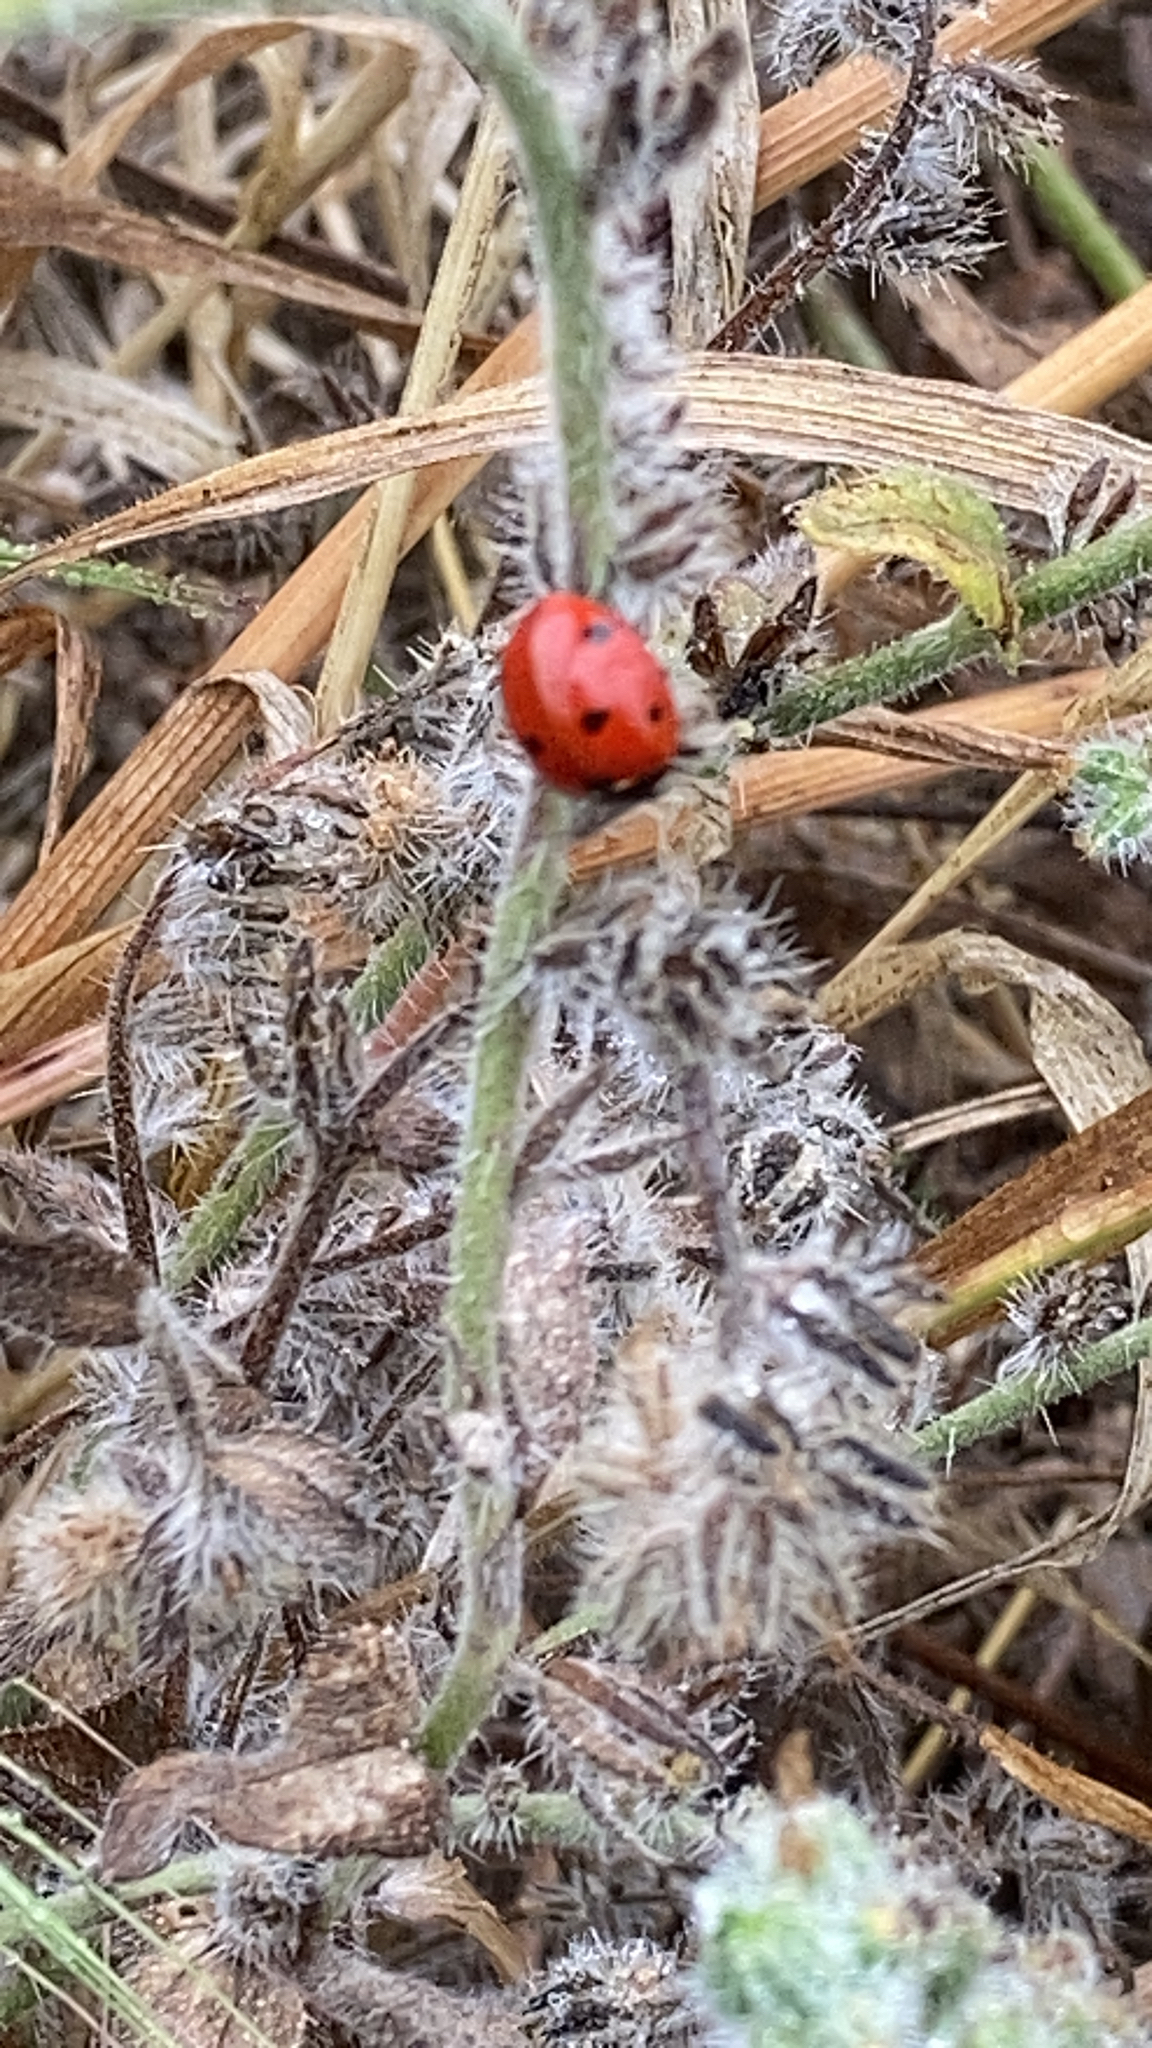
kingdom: Animalia
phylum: Arthropoda
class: Insecta
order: Coleoptera
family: Coccinellidae
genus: Coccinella
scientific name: Coccinella septempunctata
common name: Sevenspotted lady beetle
